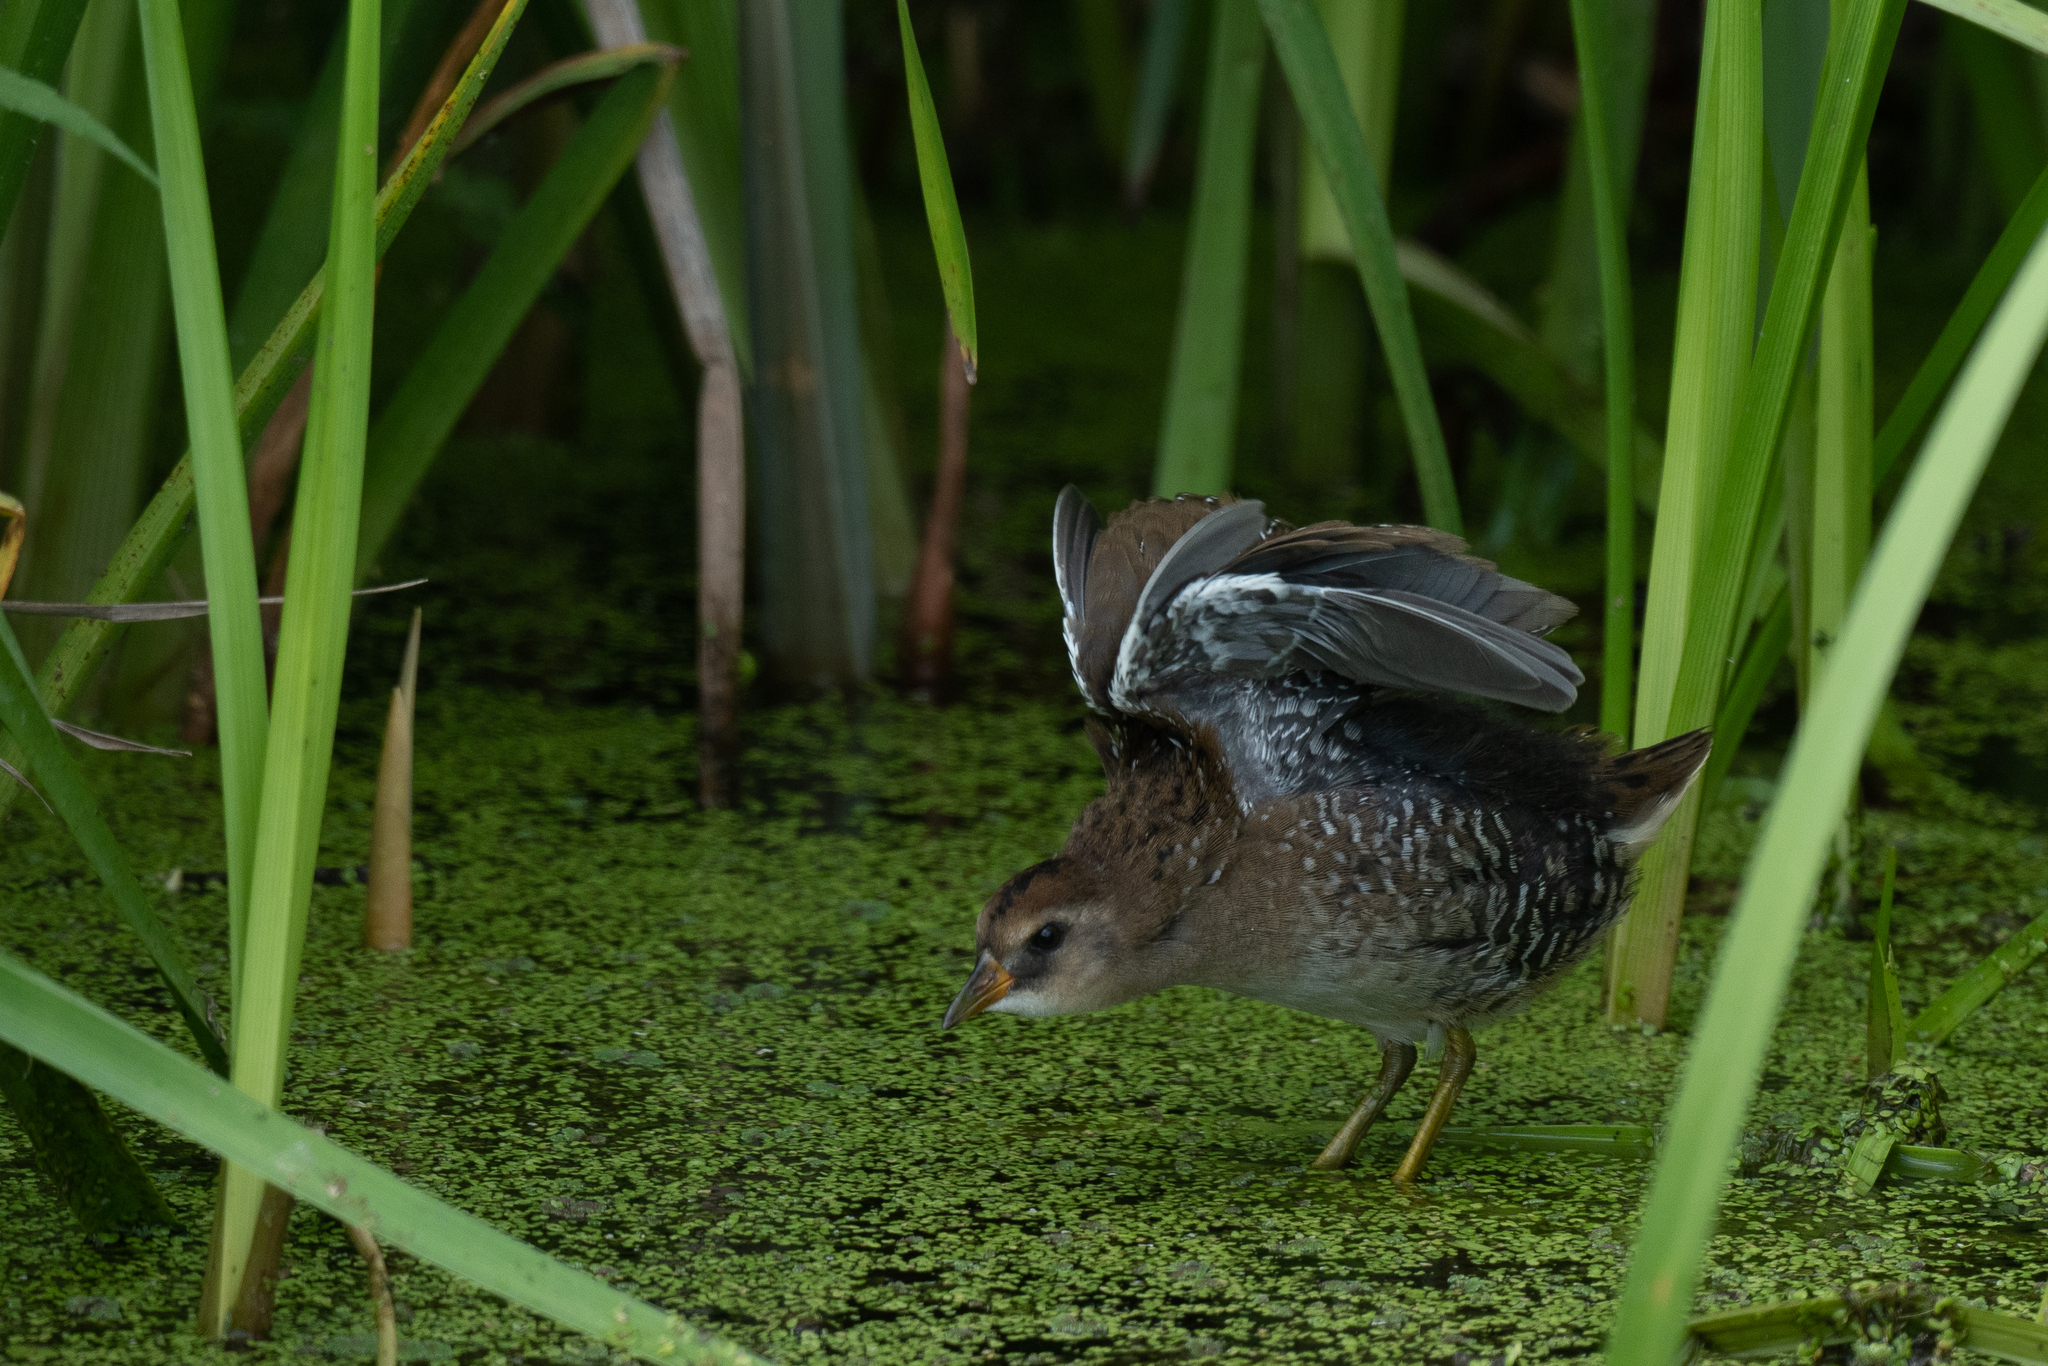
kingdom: Animalia
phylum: Chordata
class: Aves
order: Gruiformes
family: Rallidae
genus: Porzana
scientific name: Porzana carolina
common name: Sora
